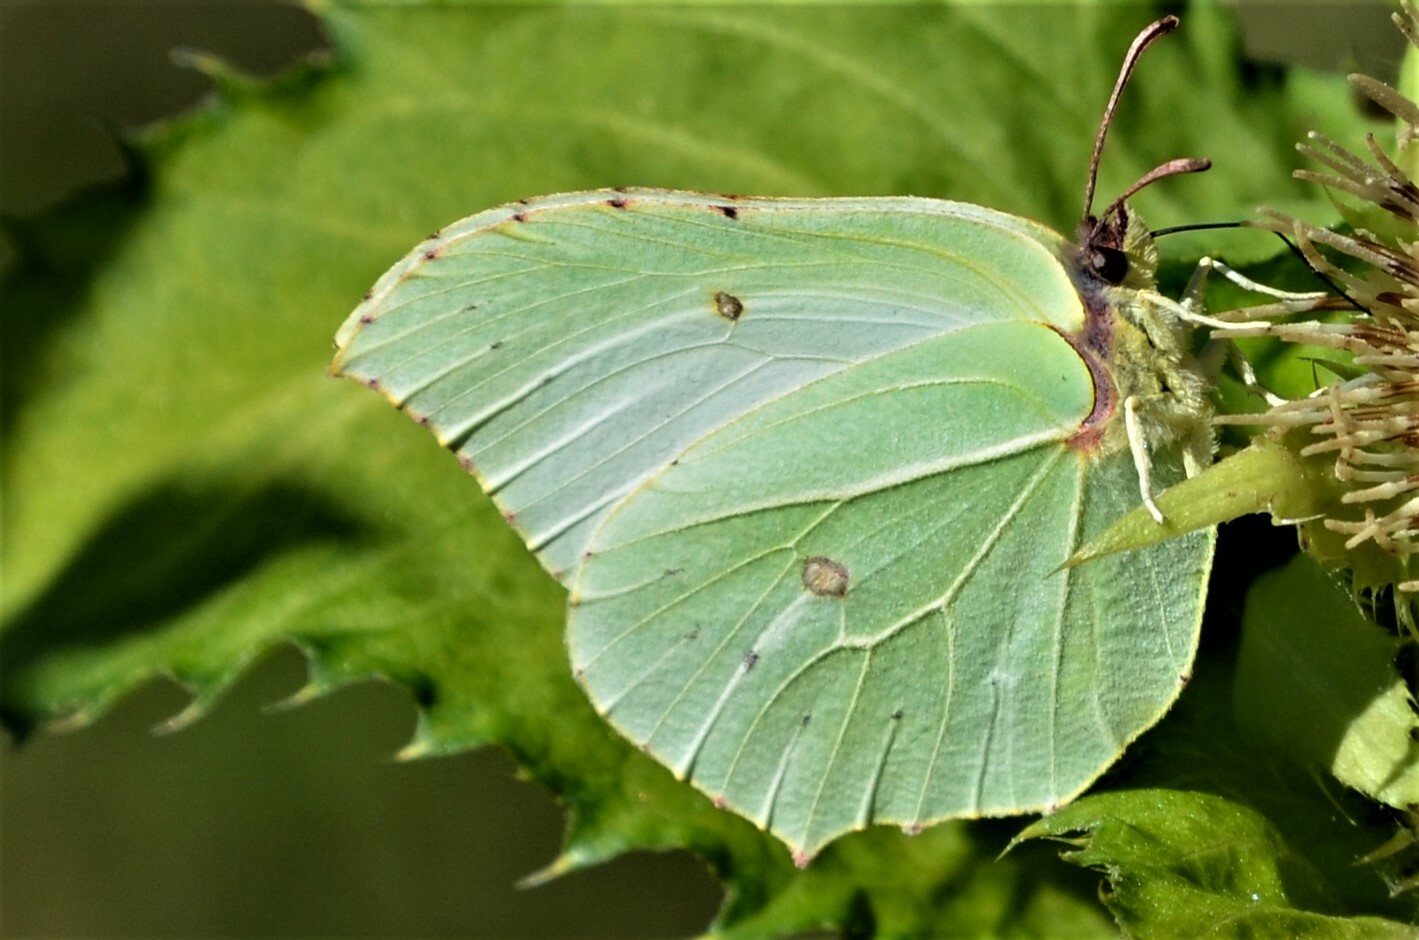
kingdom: Animalia
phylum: Arthropoda
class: Insecta
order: Lepidoptera
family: Pieridae
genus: Gonepteryx
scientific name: Gonepteryx rhamni
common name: Brimstone
